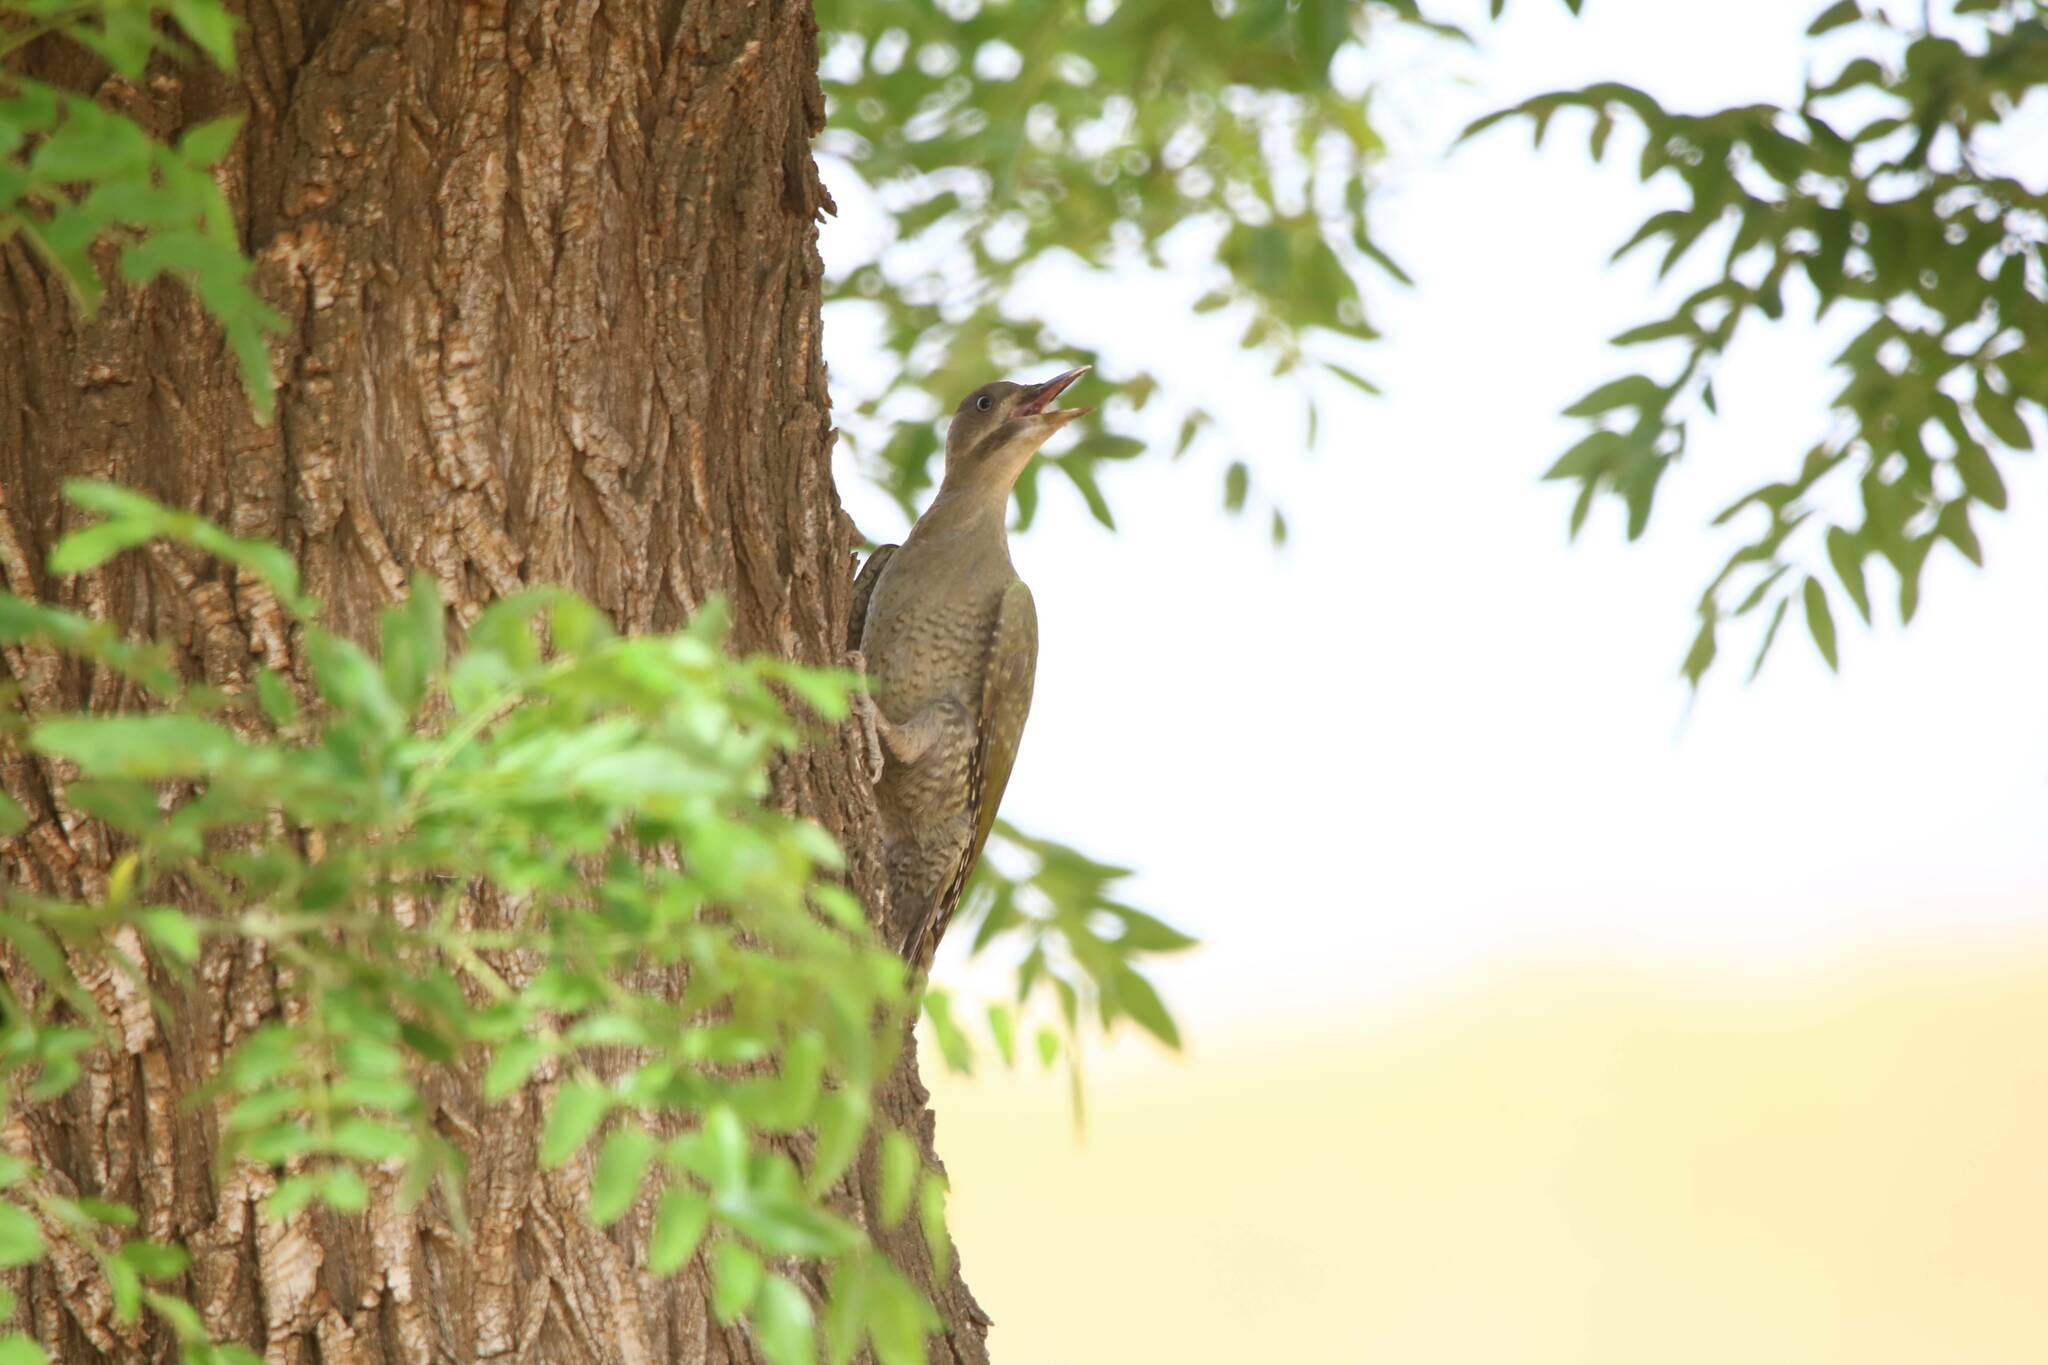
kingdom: Animalia
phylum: Chordata
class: Aves
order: Piciformes
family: Picidae
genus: Picus
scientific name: Picus vaillantii
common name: Levaillant's woodpecker
